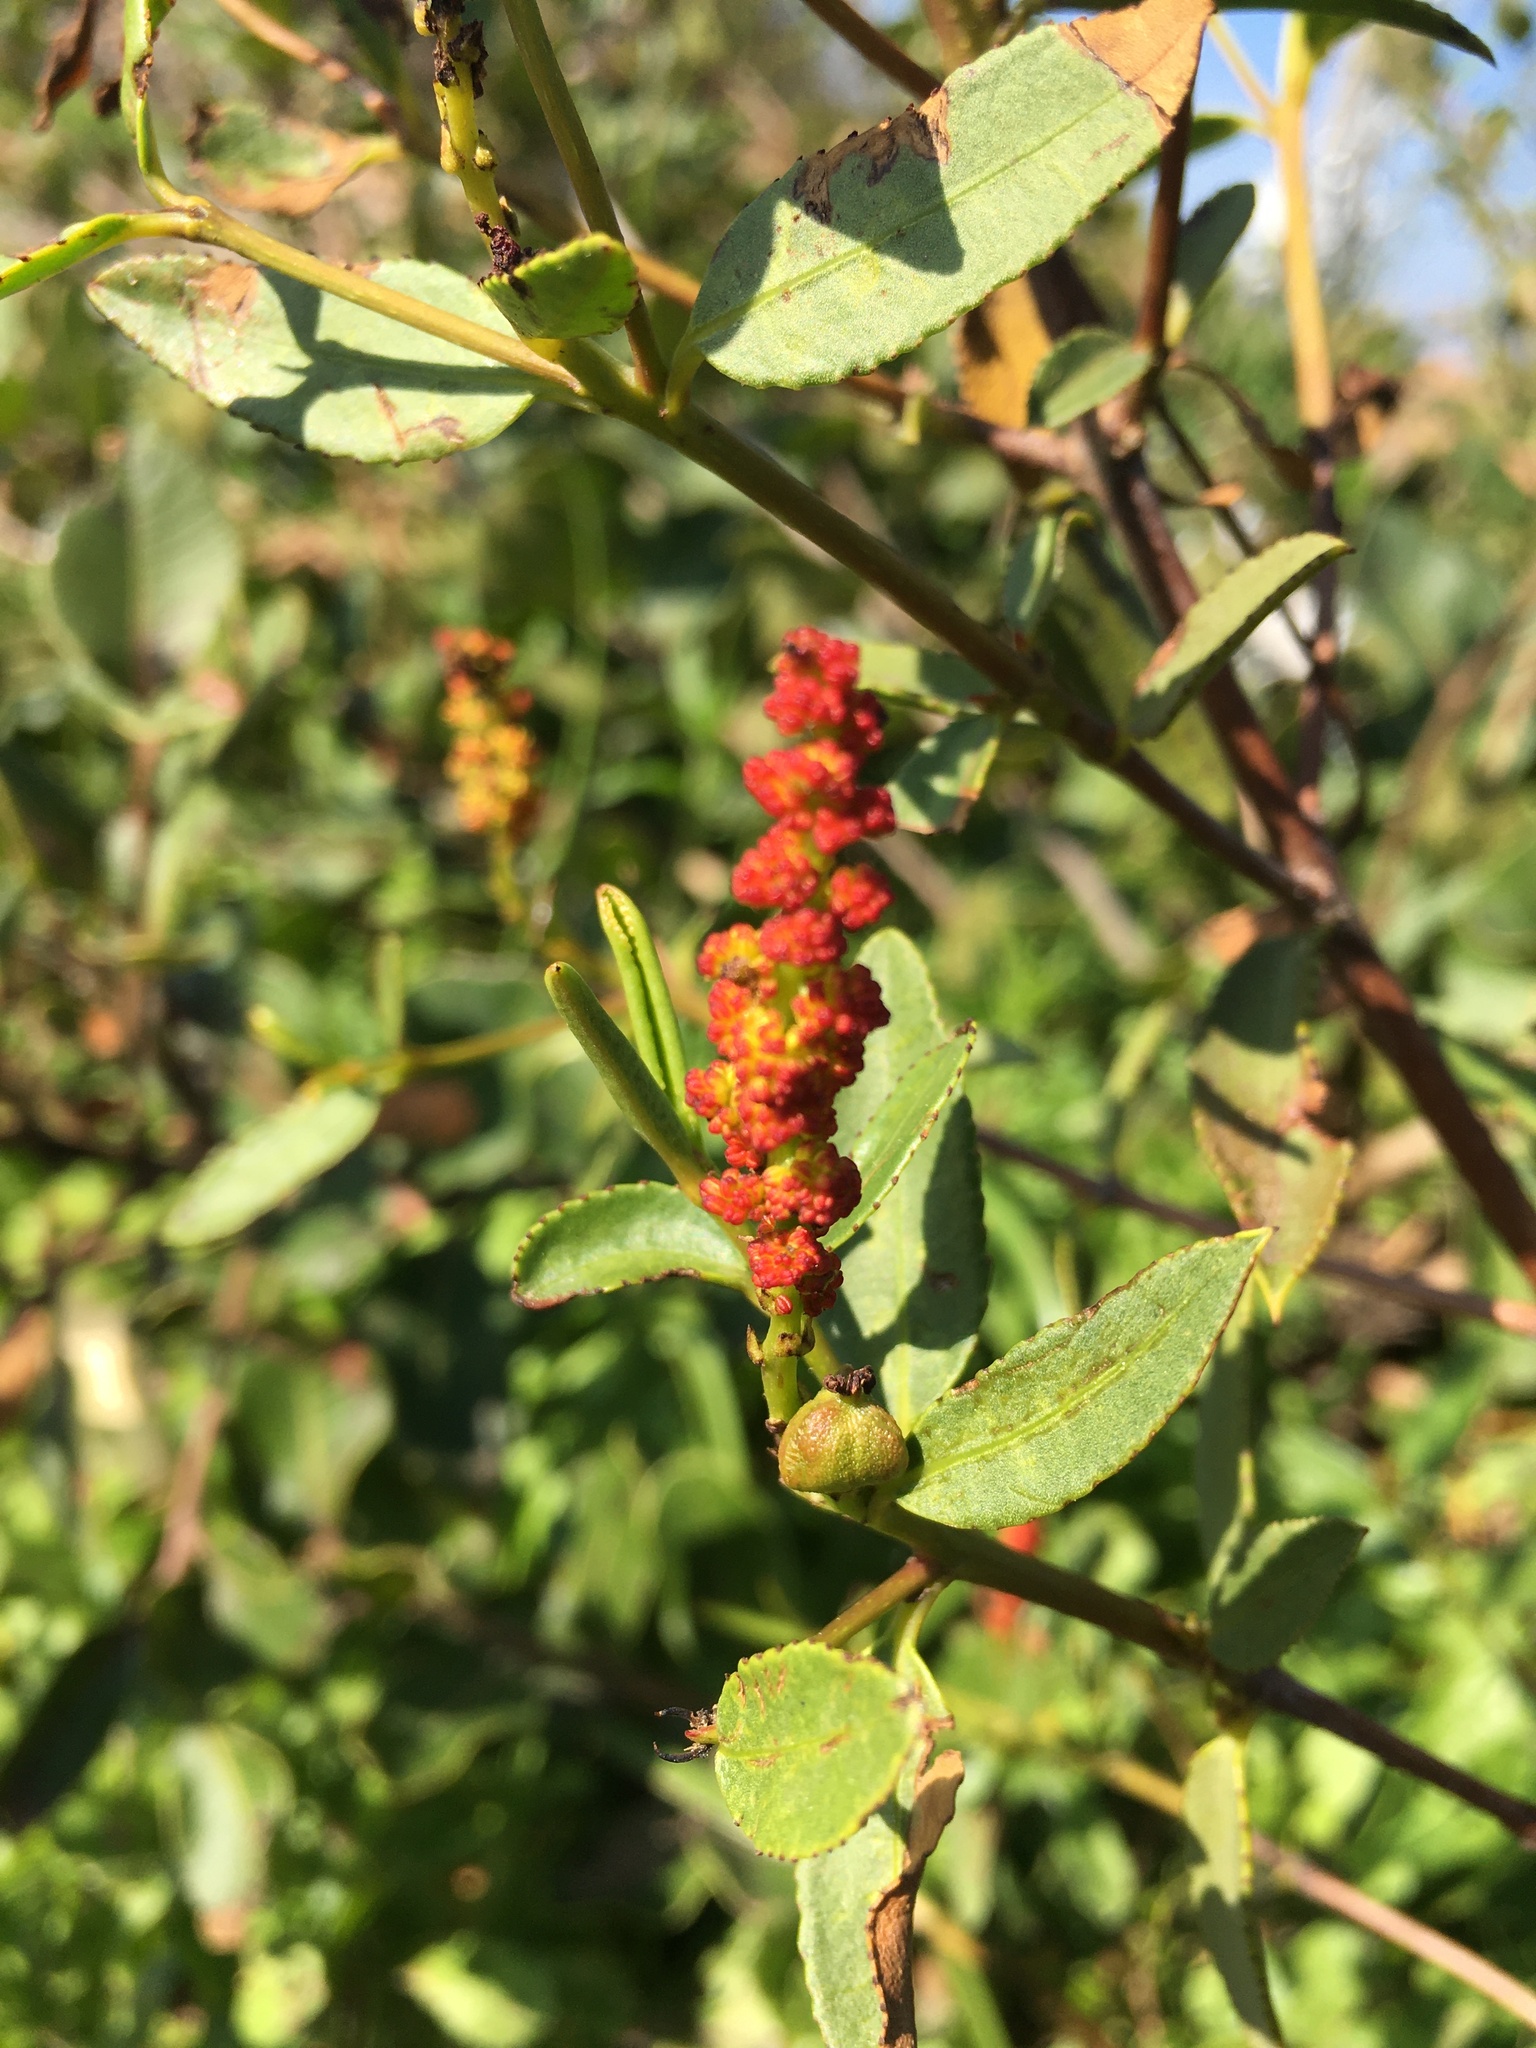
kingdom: Plantae
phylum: Tracheophyta
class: Magnoliopsida
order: Malpighiales
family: Euphorbiaceae
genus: Colliguaja
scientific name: Colliguaja odorifera
